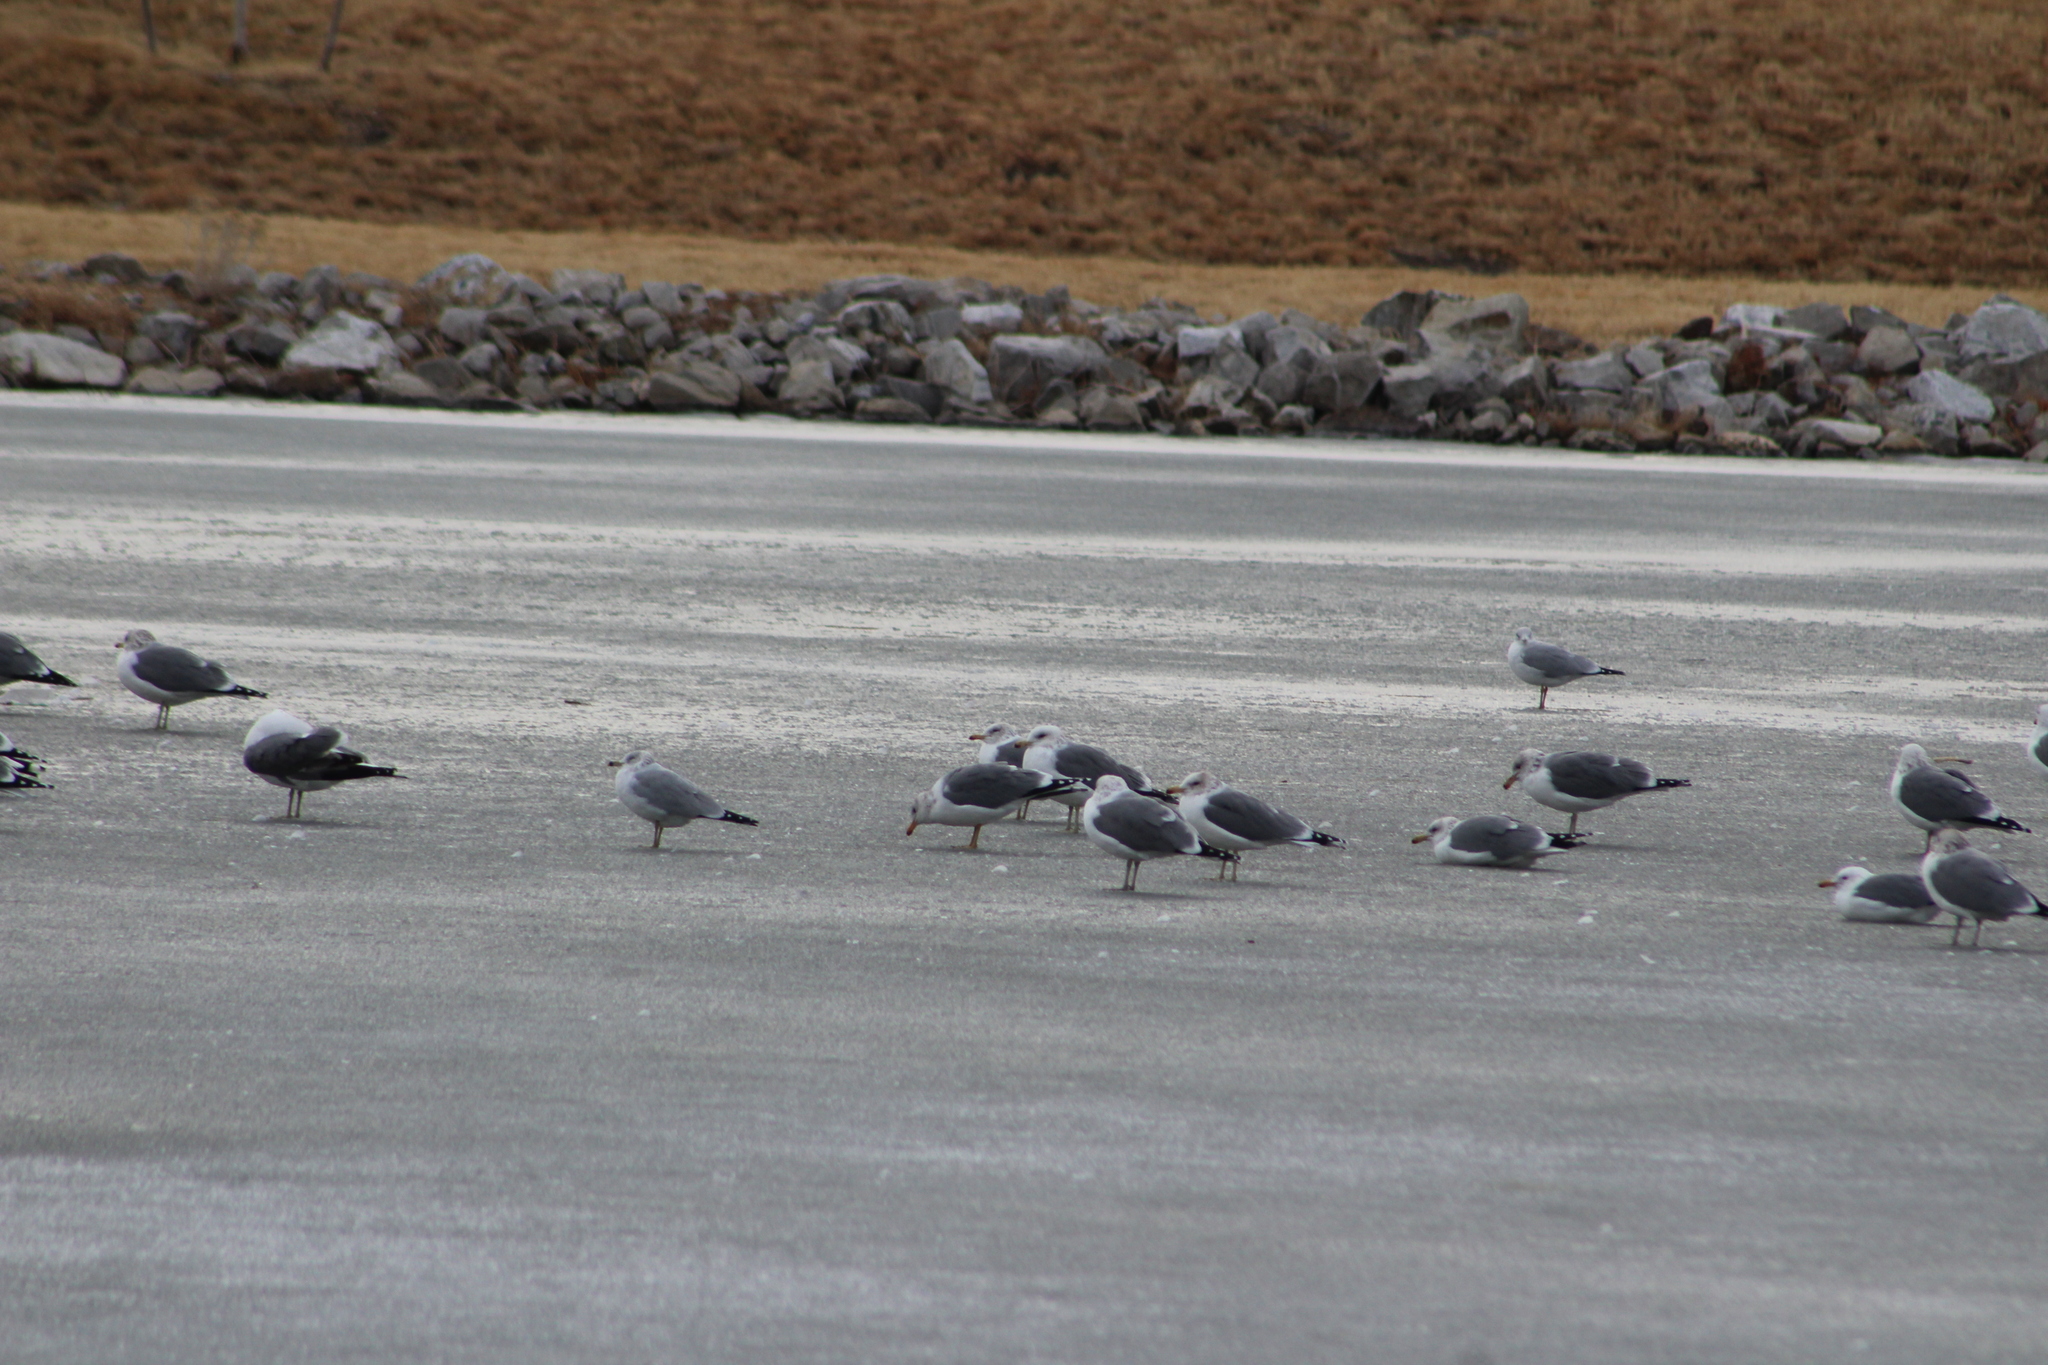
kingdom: Animalia
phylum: Chordata
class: Aves
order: Charadriiformes
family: Laridae
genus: Larus
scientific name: Larus delawarensis
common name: Ring-billed gull
